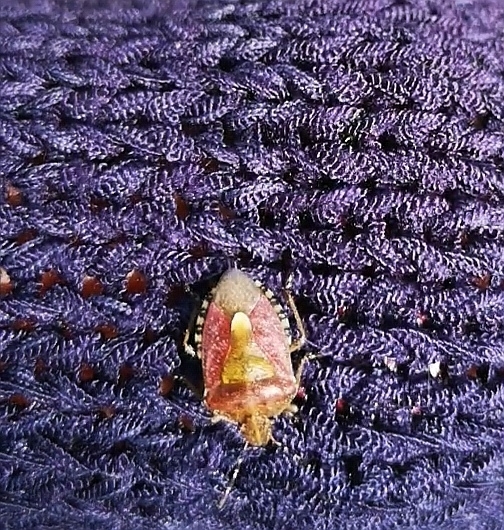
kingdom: Animalia
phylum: Arthropoda
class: Insecta
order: Hemiptera
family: Pentatomidae
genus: Dolycoris
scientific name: Dolycoris baccarum
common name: Sloe bug
